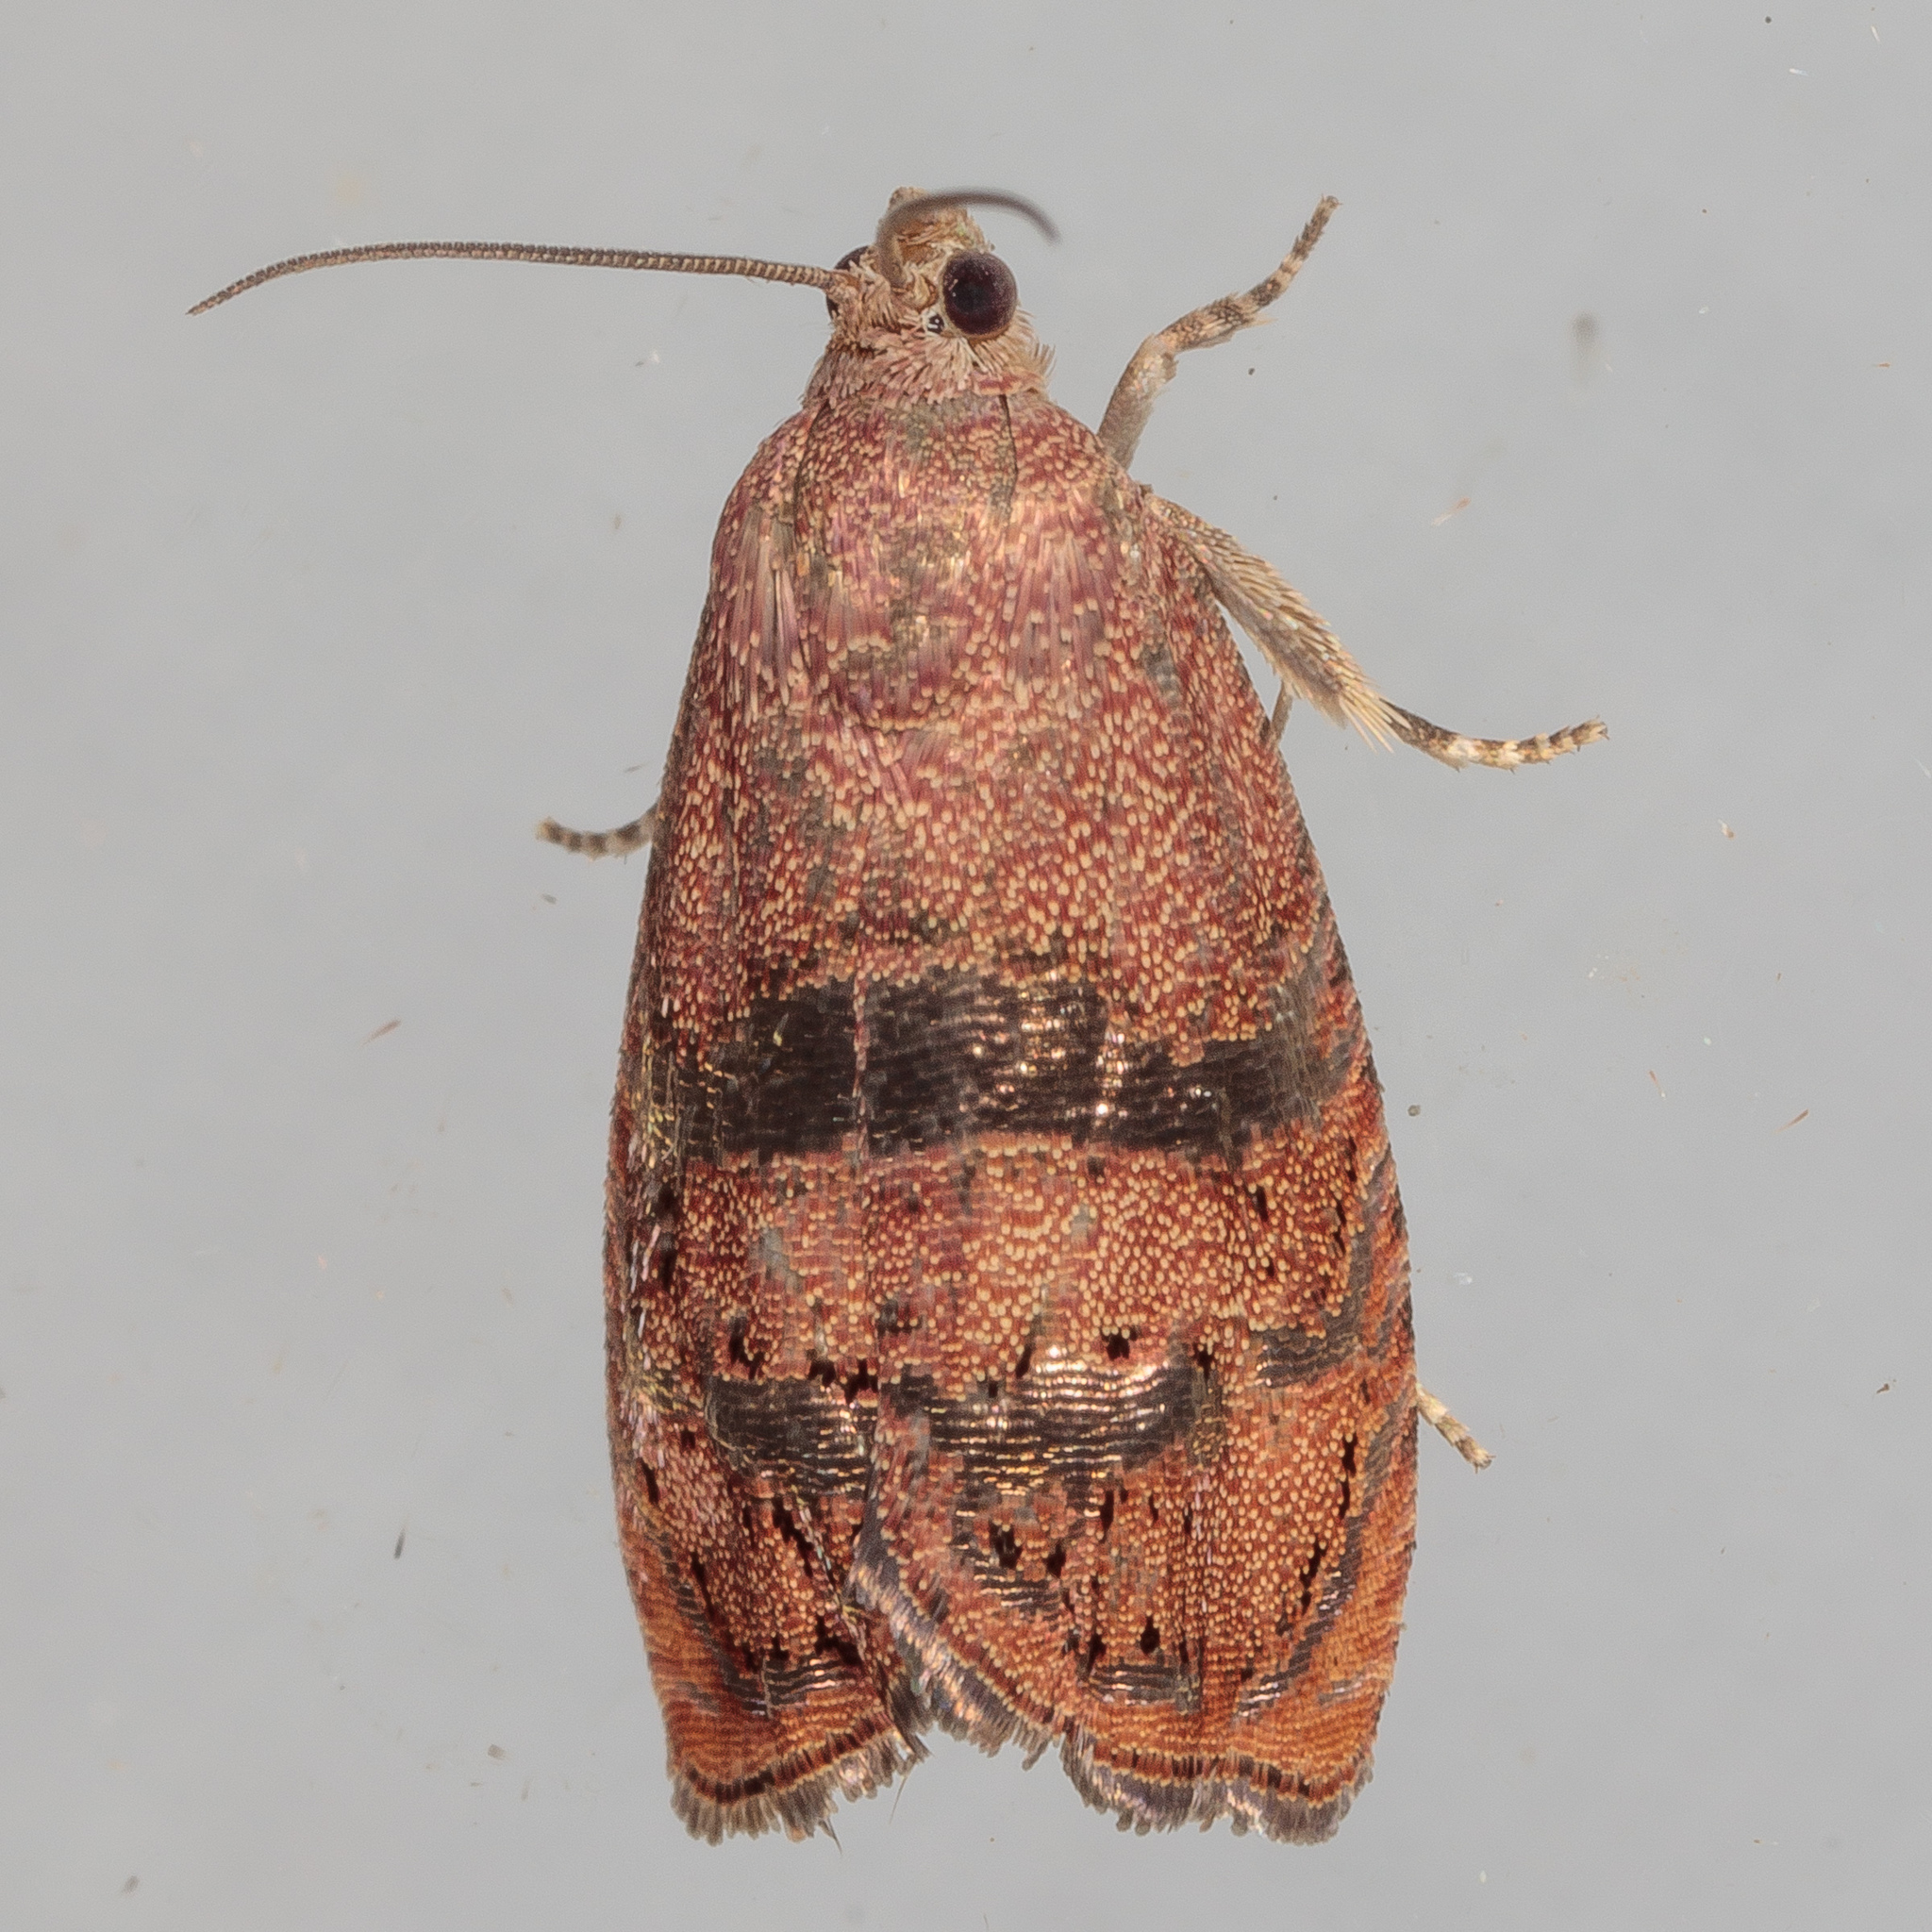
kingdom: Animalia
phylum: Arthropoda
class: Insecta
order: Lepidoptera
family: Tortricidae
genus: Cydia
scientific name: Cydia latiferreana
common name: Filbertworm moth
